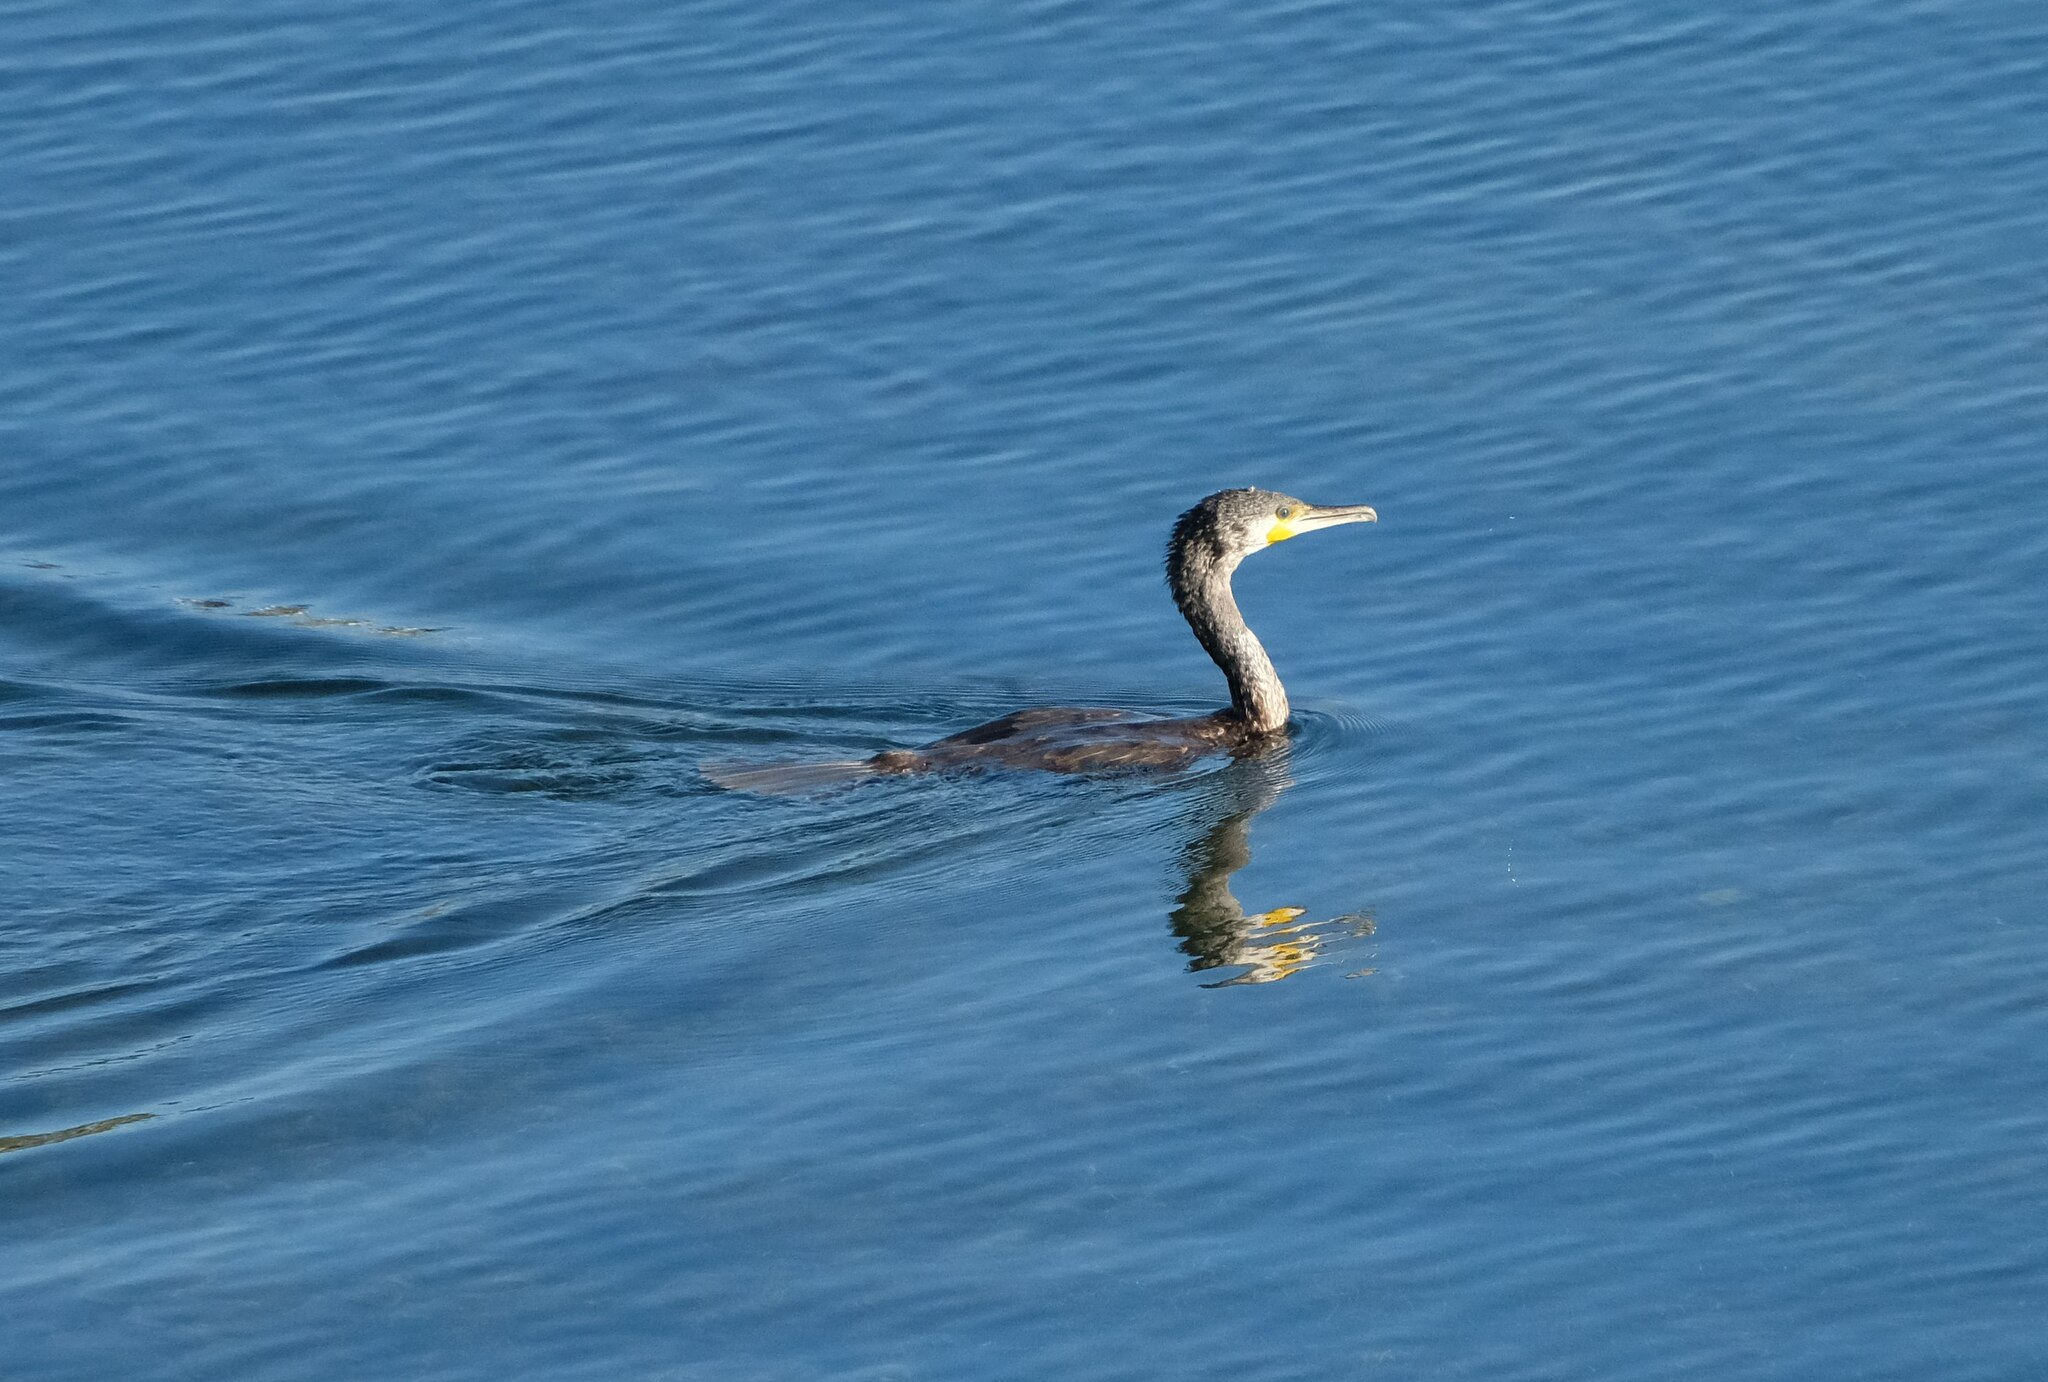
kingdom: Animalia
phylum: Chordata
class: Aves
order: Suliformes
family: Phalacrocoracidae
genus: Phalacrocorax
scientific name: Phalacrocorax carbo
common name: Great cormorant
